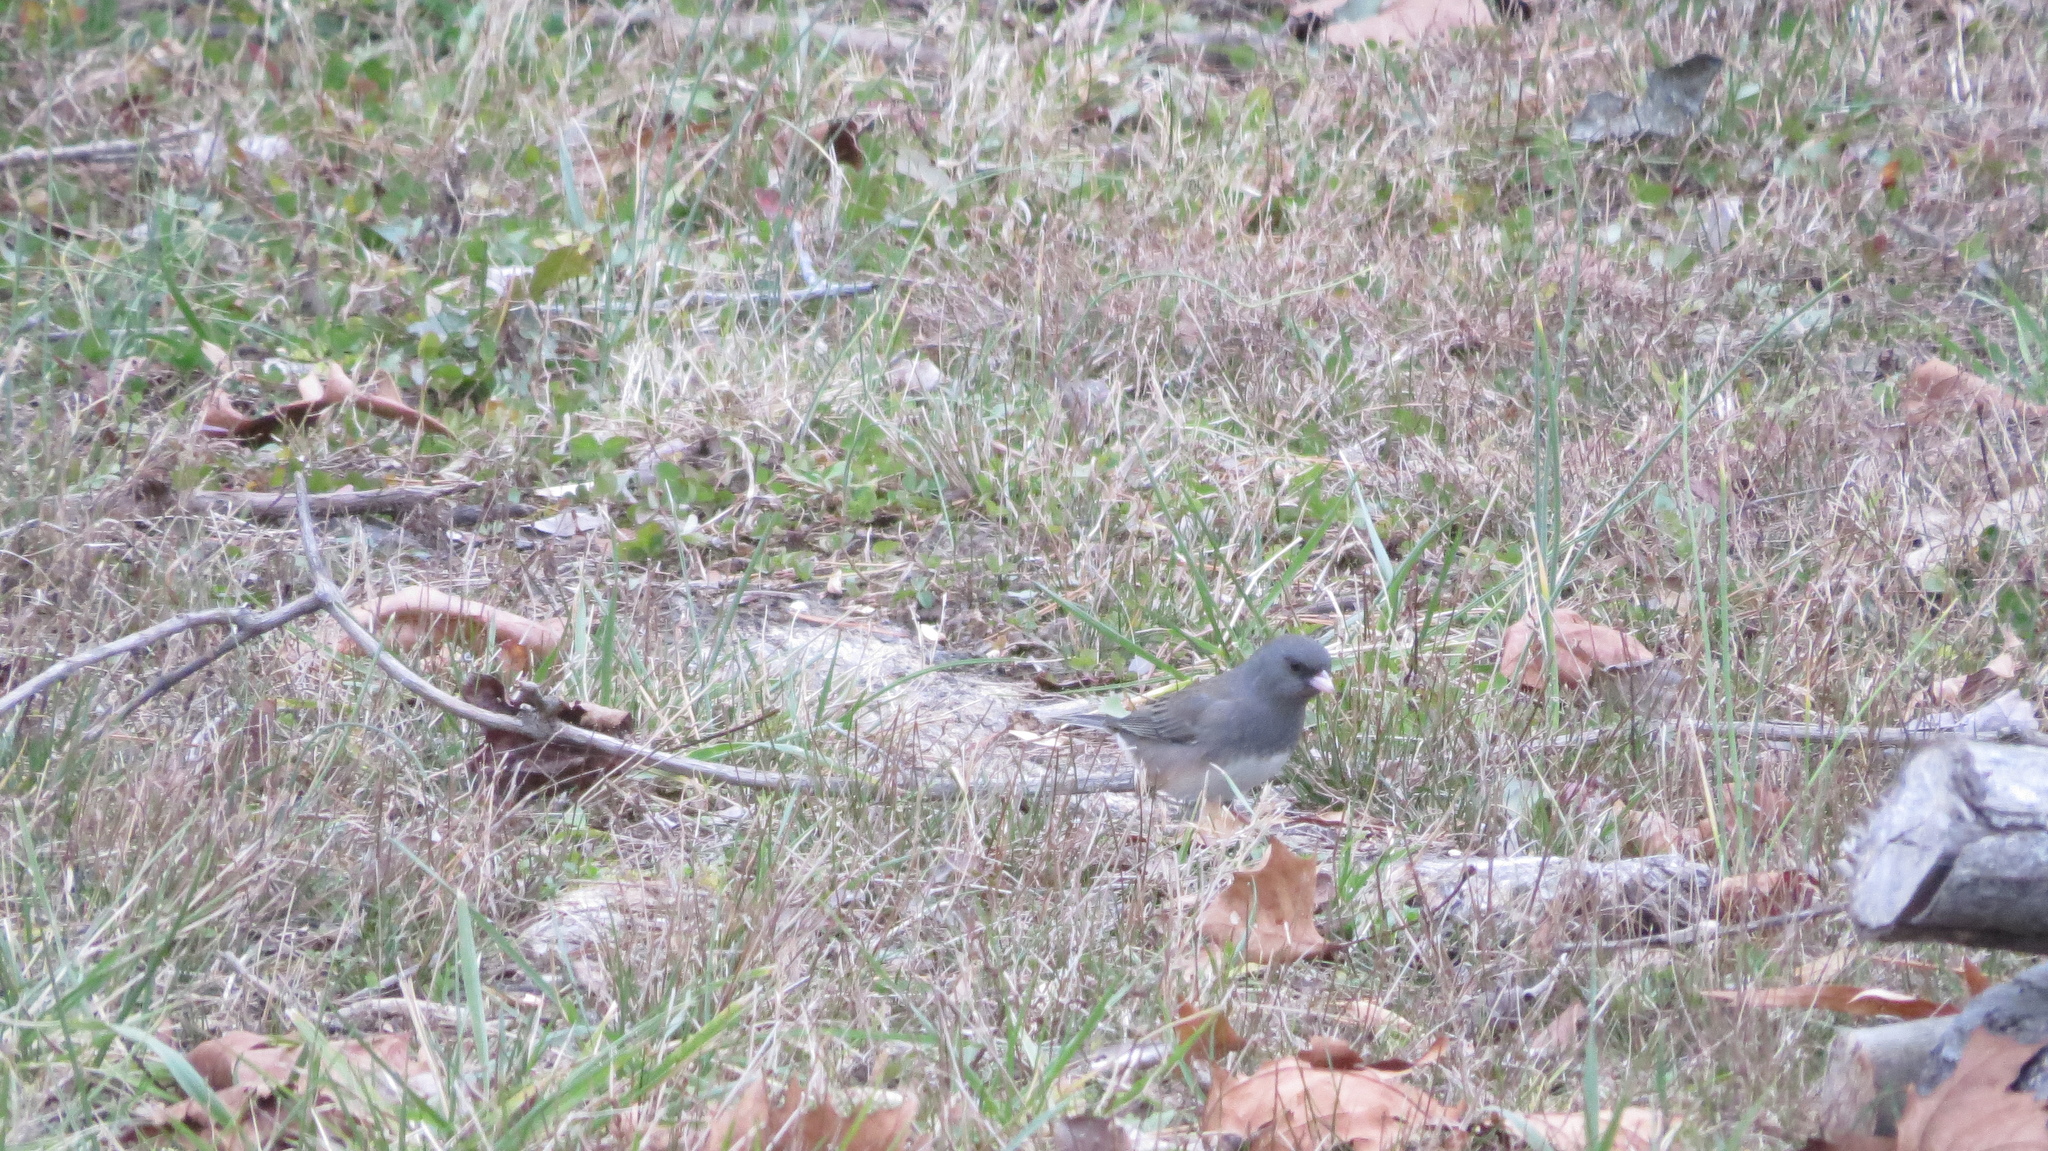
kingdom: Animalia
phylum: Chordata
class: Aves
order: Passeriformes
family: Passerellidae
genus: Junco
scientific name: Junco hyemalis
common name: Dark-eyed junco
